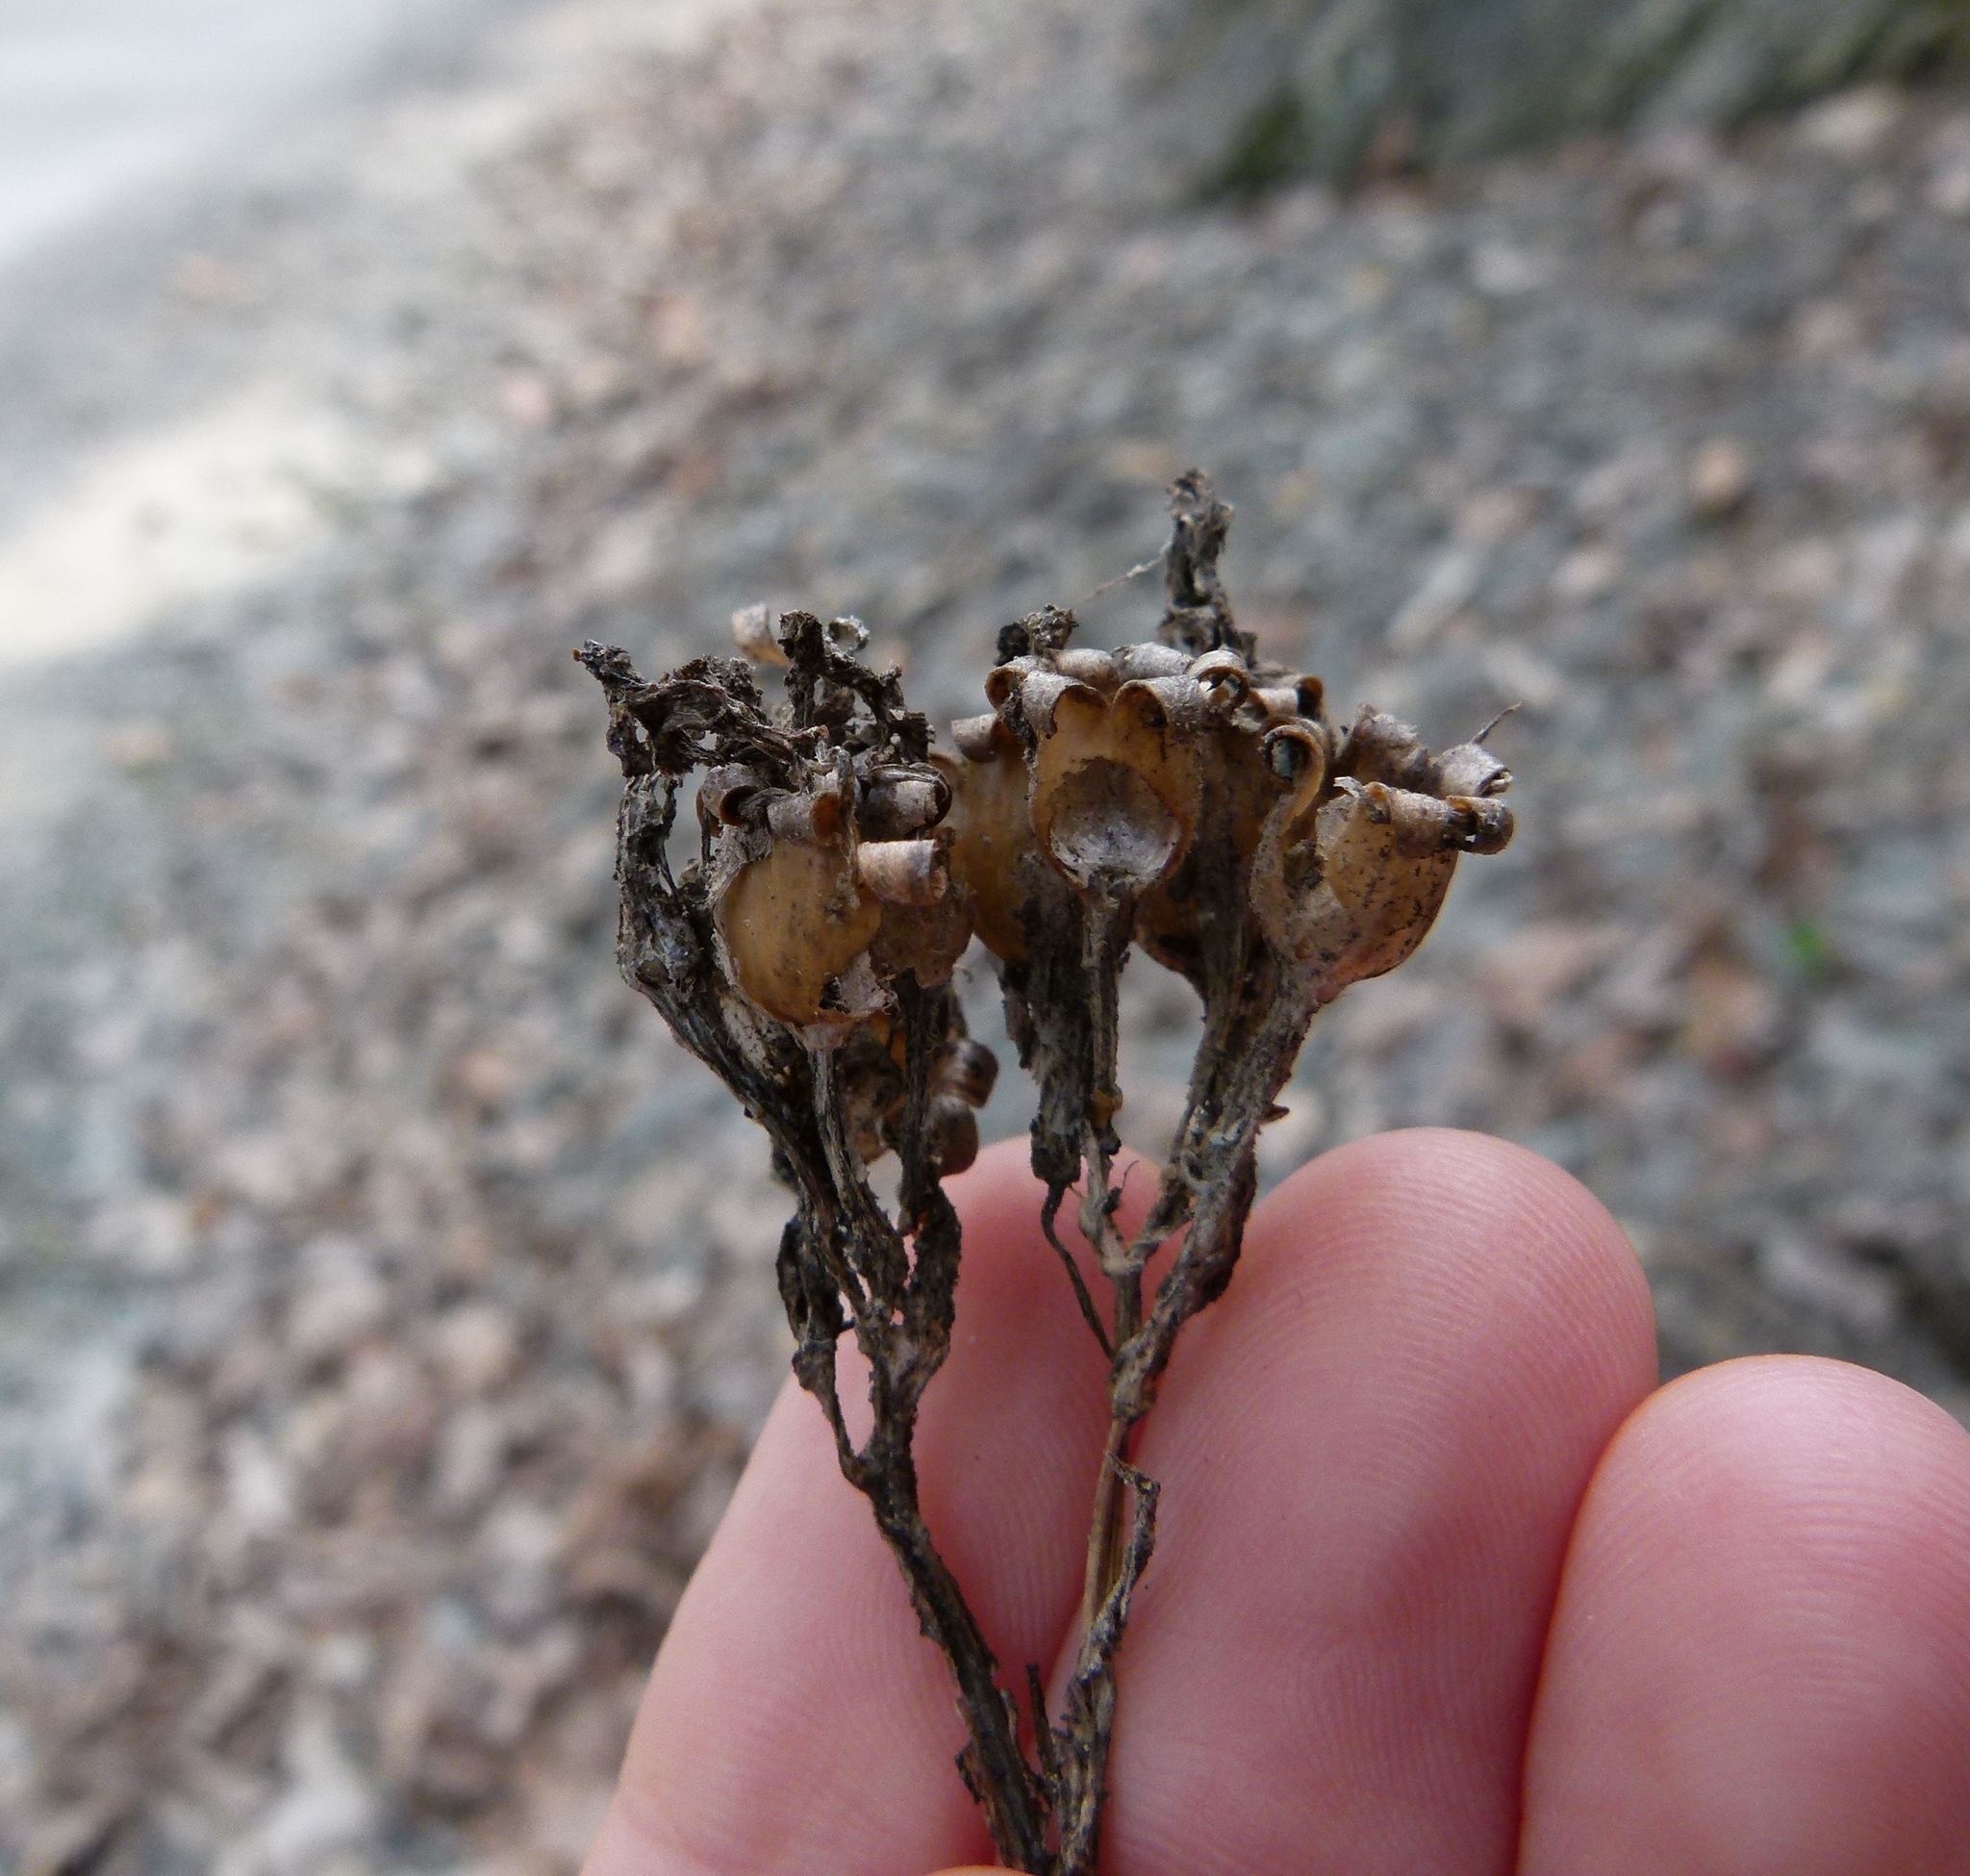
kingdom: Plantae
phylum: Tracheophyta
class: Magnoliopsida
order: Ericales
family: Ericaceae
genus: Monotropa
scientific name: Monotropa uniflora
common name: Convulsion root
